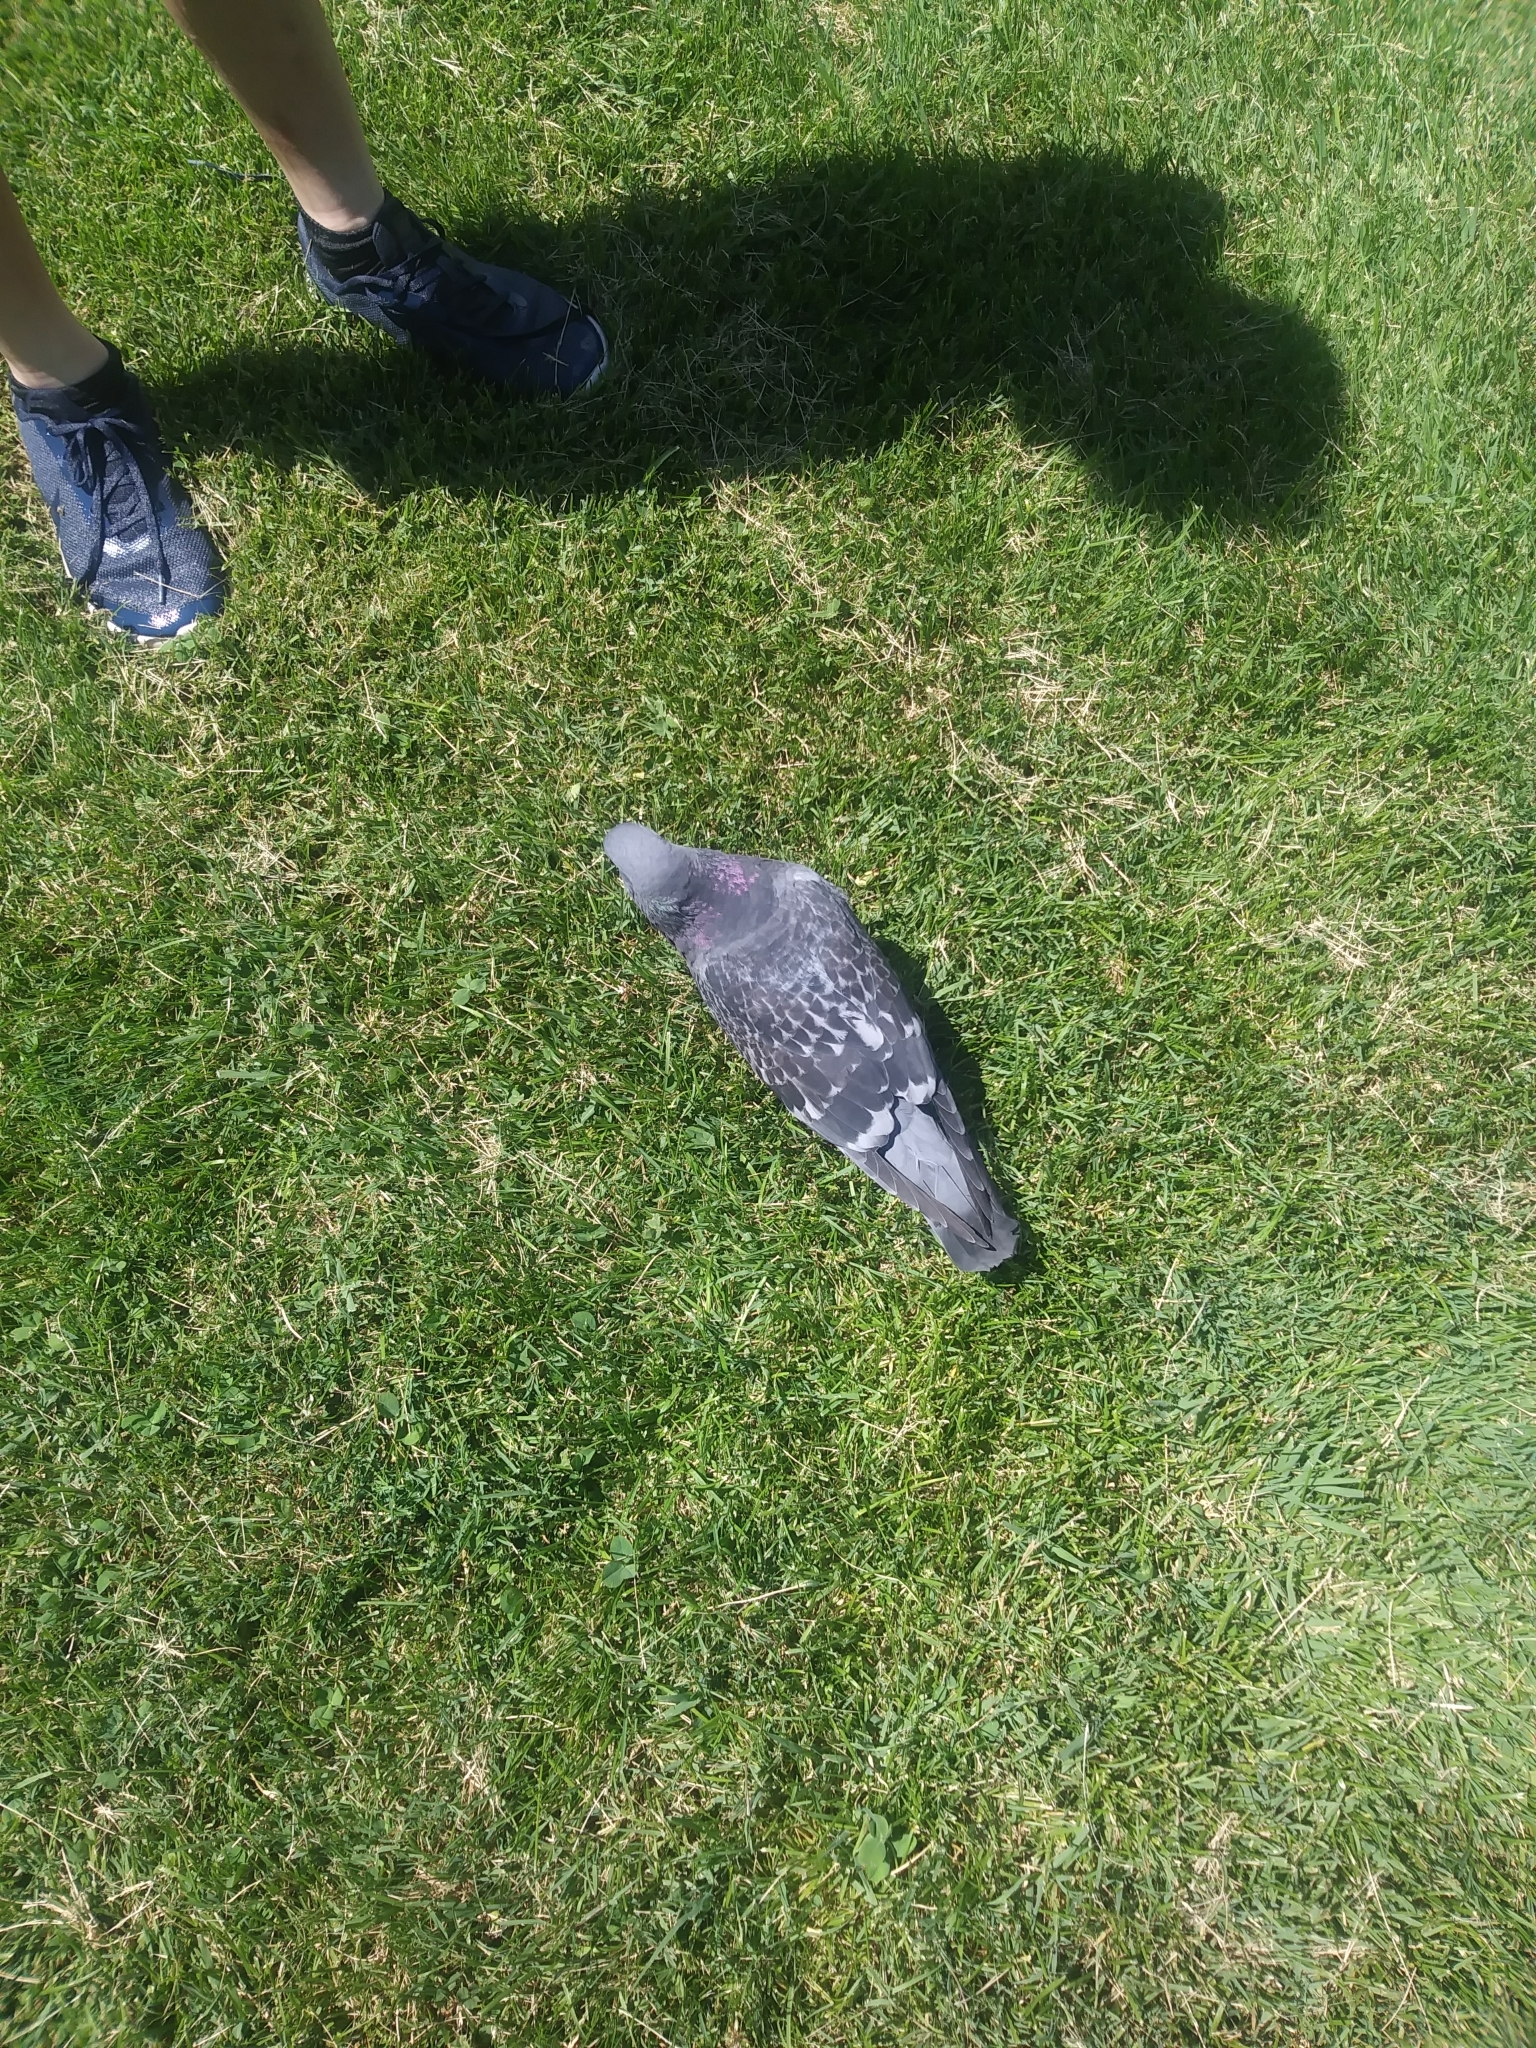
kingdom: Animalia
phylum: Chordata
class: Aves
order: Columbiformes
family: Columbidae
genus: Columba
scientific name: Columba livia
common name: Rock pigeon
